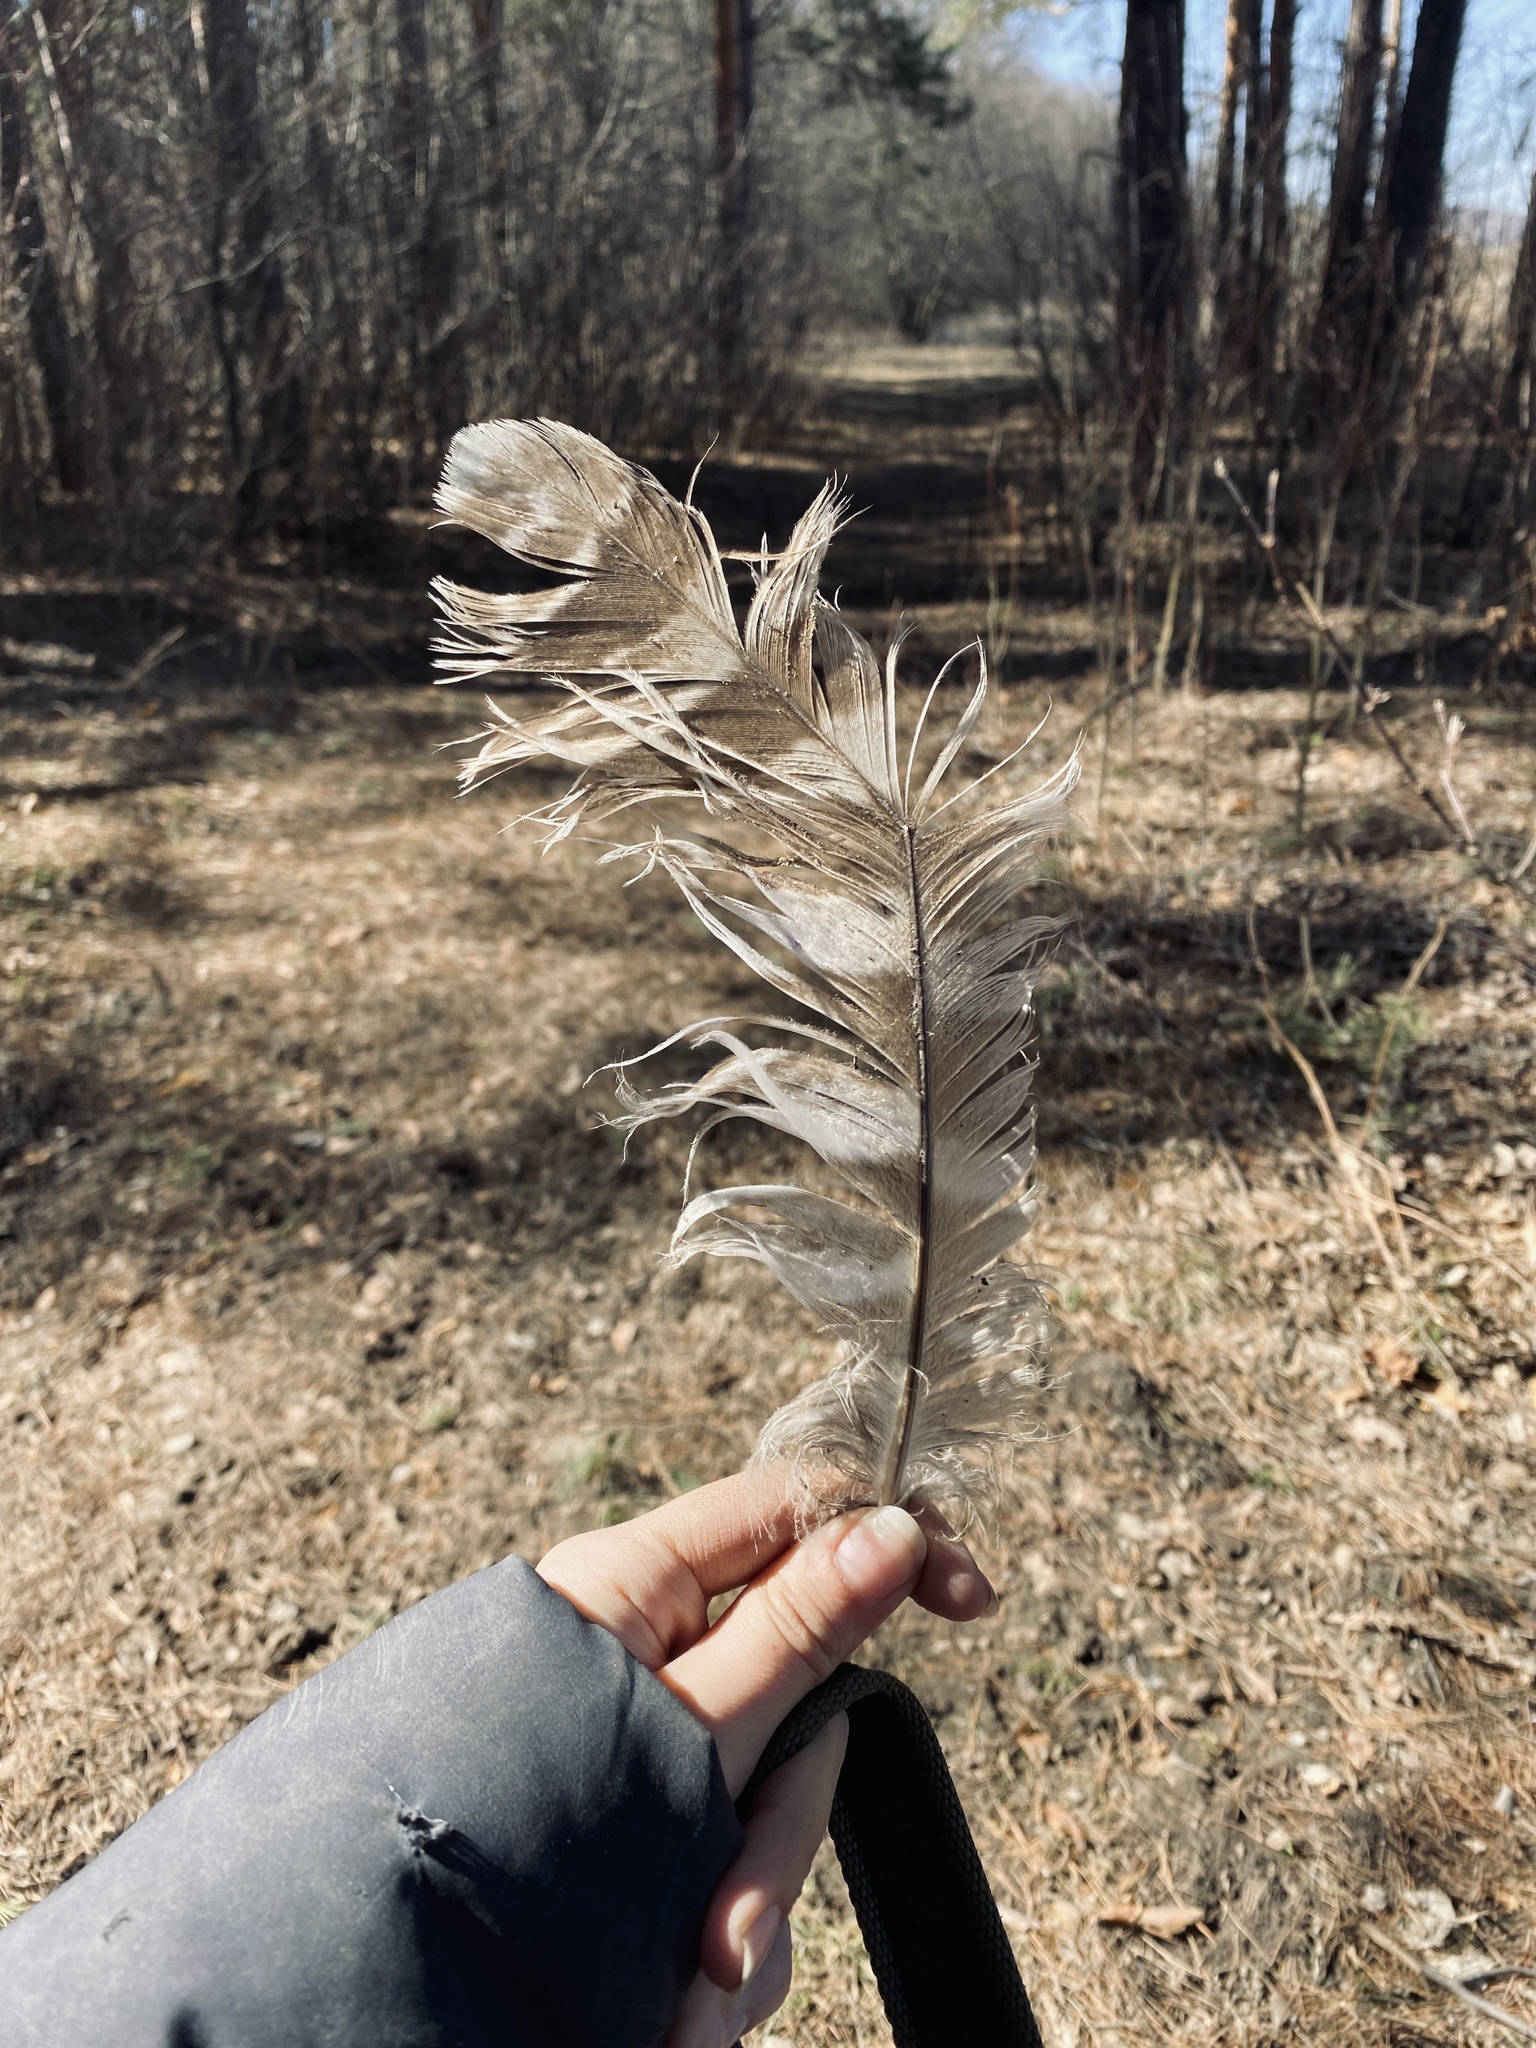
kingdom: Animalia
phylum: Chordata
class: Aves
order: Strigiformes
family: Strigidae
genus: Strix
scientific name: Strix uralensis
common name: Ural owl
